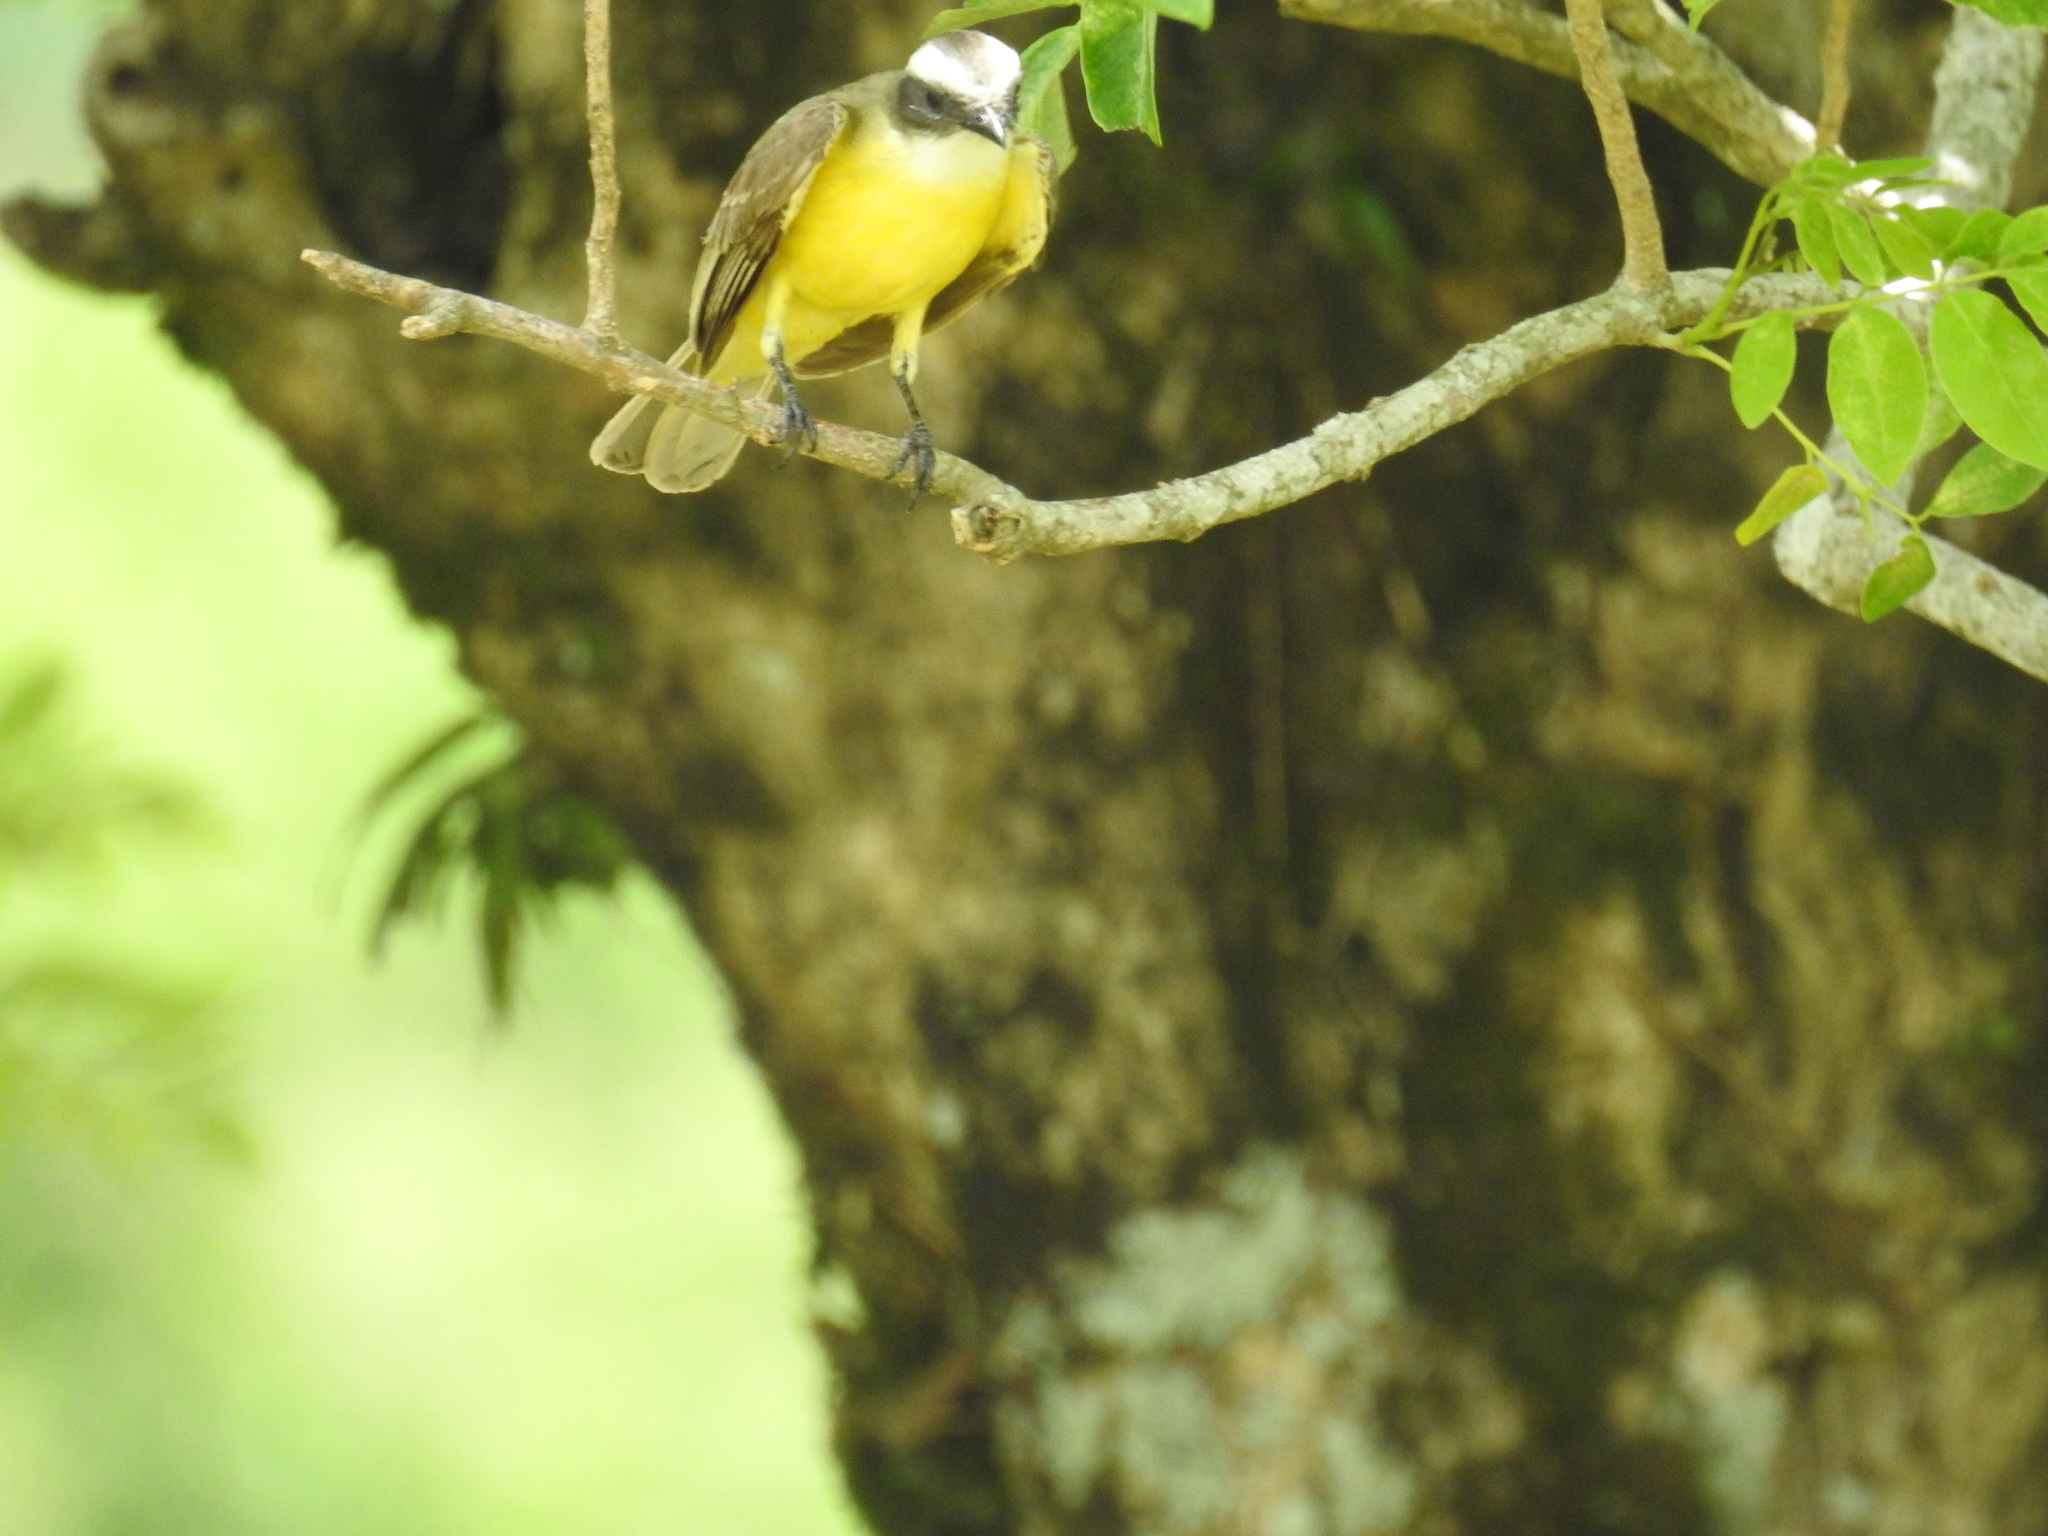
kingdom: Animalia
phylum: Chordata
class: Aves
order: Passeriformes
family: Tyrannidae
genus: Myiozetetes
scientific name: Myiozetetes similis
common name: Social flycatcher
